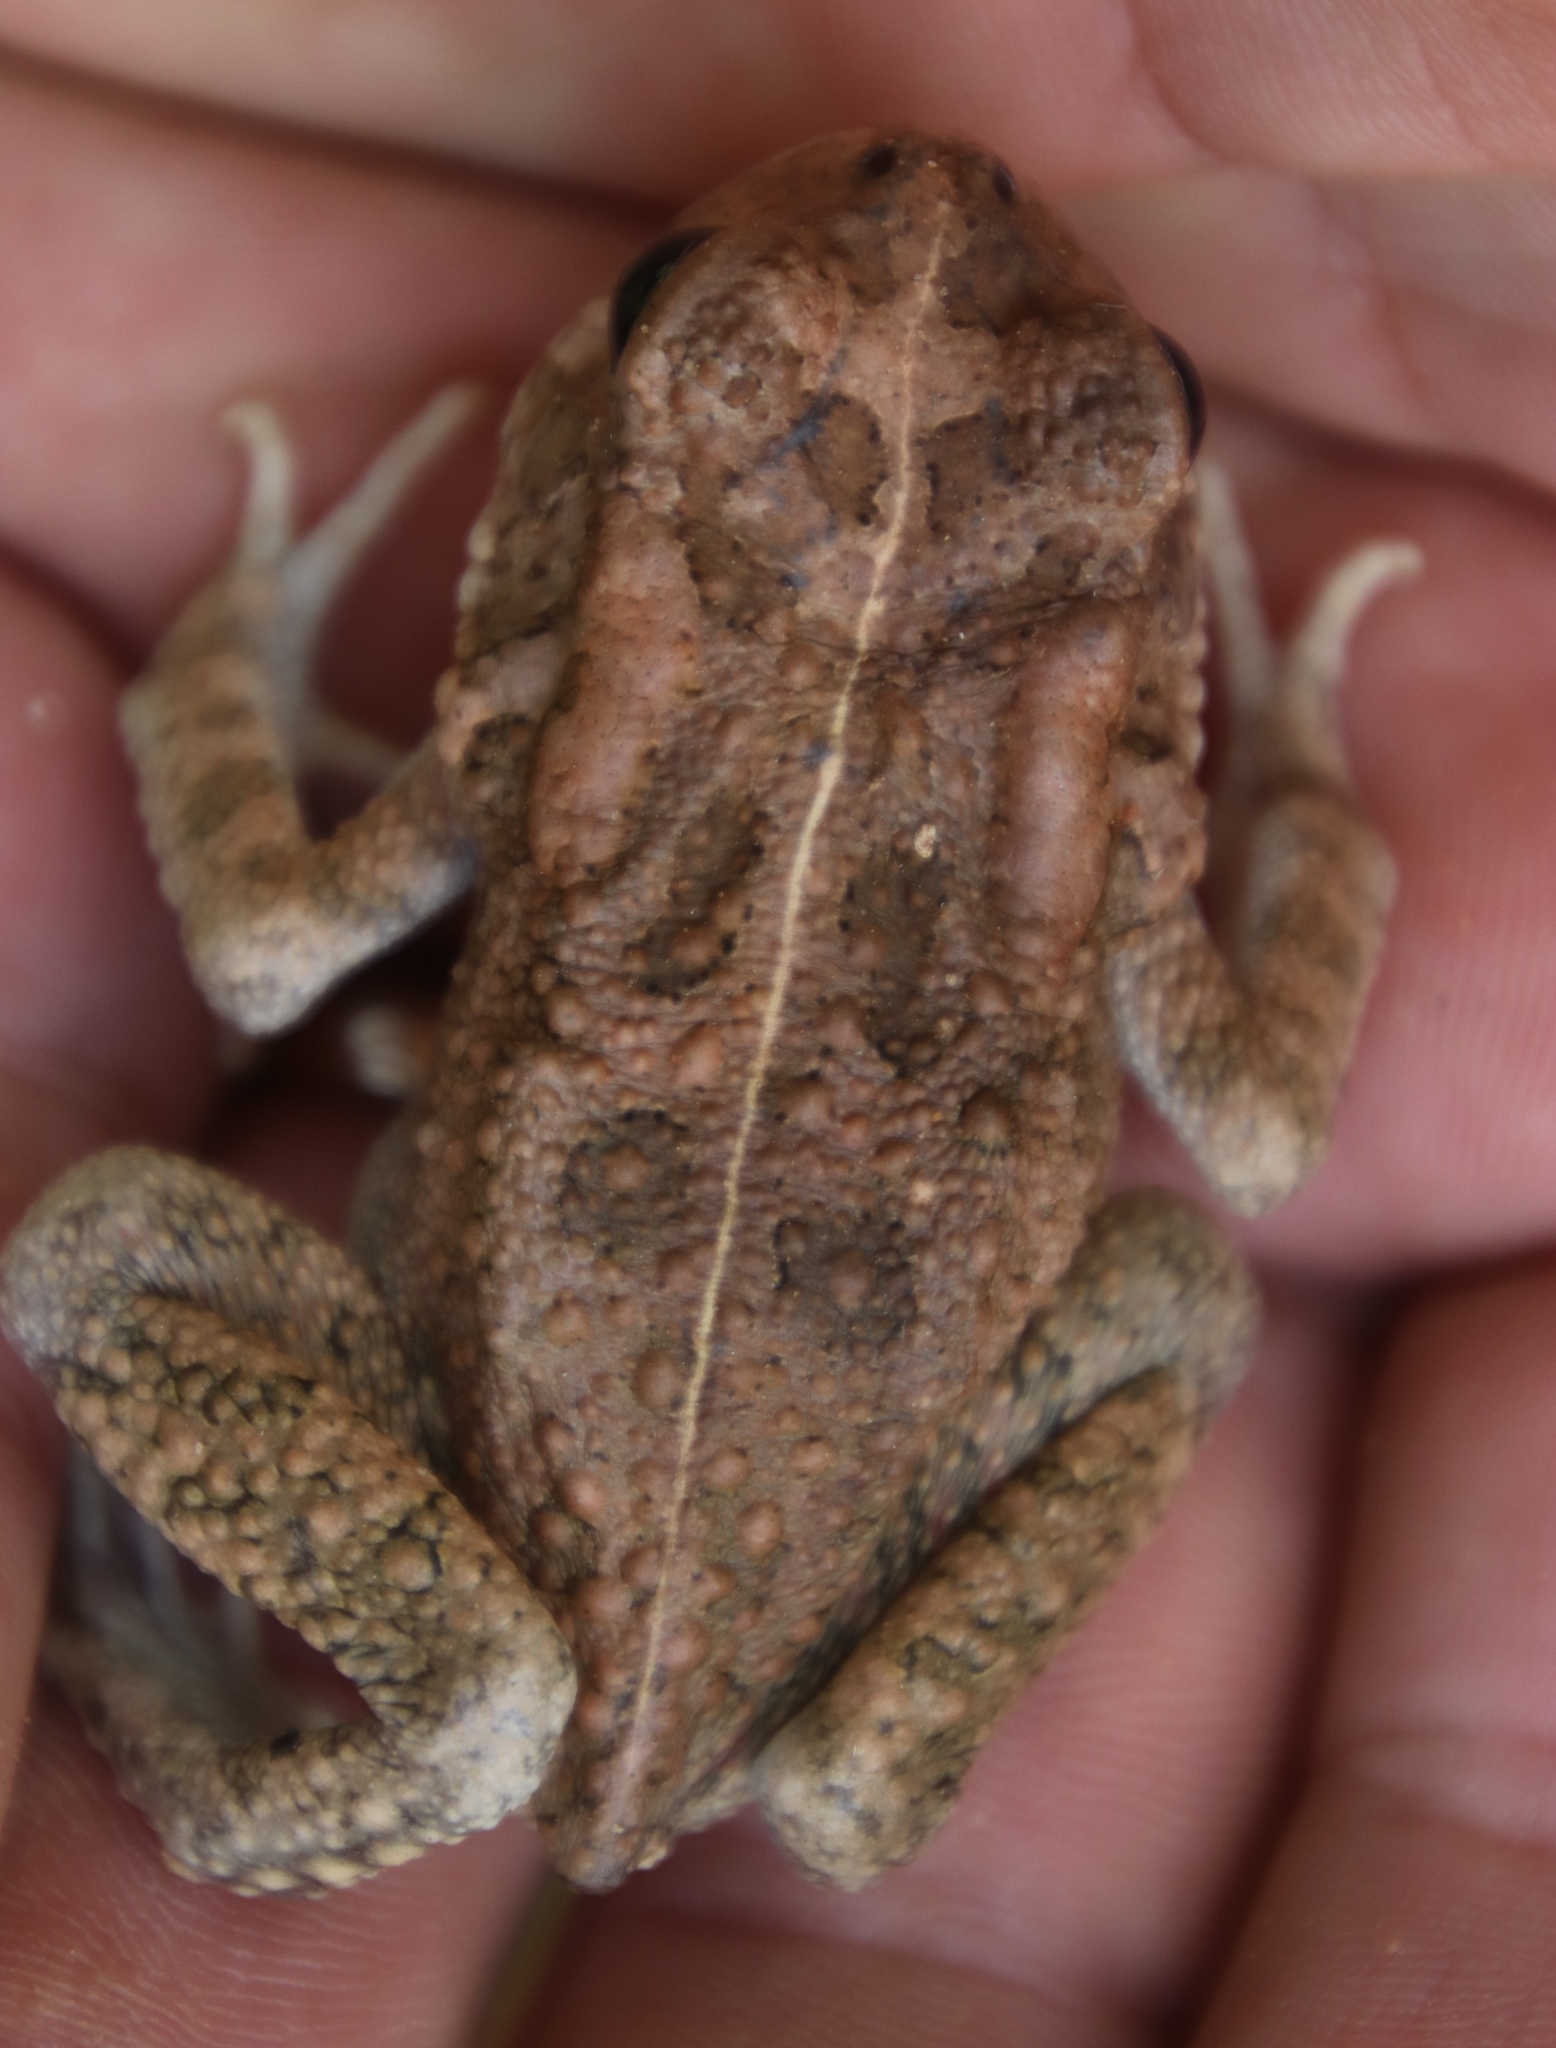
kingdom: Animalia
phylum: Chordata
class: Amphibia
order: Anura
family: Bufonidae
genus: Sclerophrys
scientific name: Sclerophrys gutturalis
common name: African common toad
